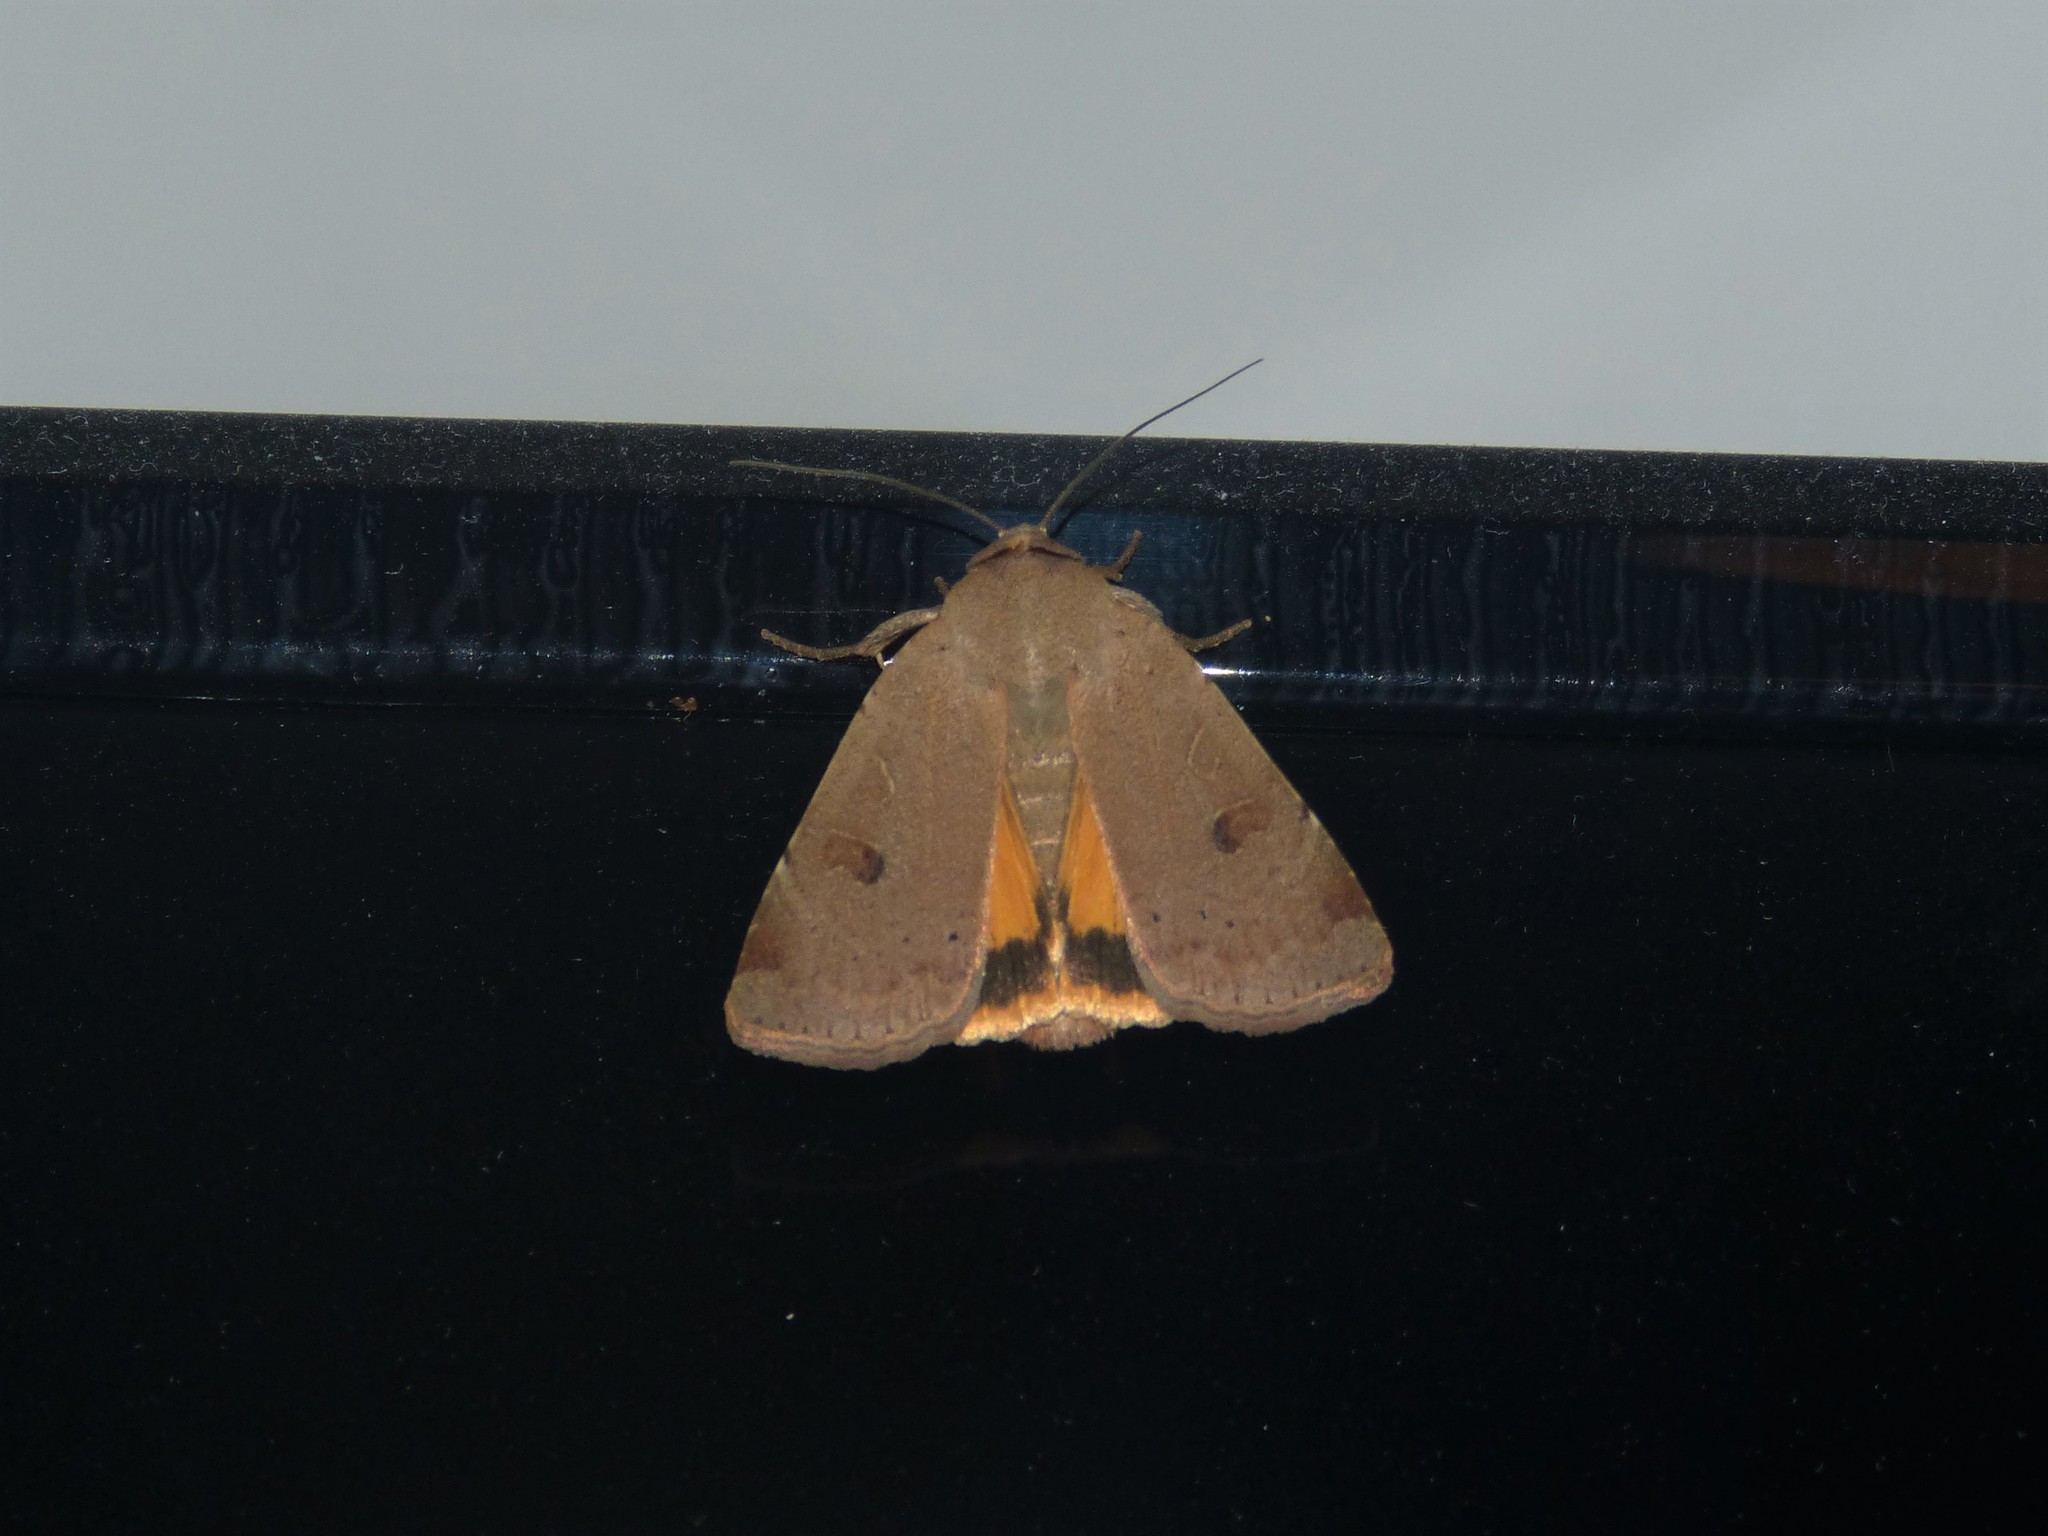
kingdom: Animalia
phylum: Arthropoda
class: Insecta
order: Lepidoptera
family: Noctuidae
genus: Noctua
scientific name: Noctua comes
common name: Lesser yellow underwing
